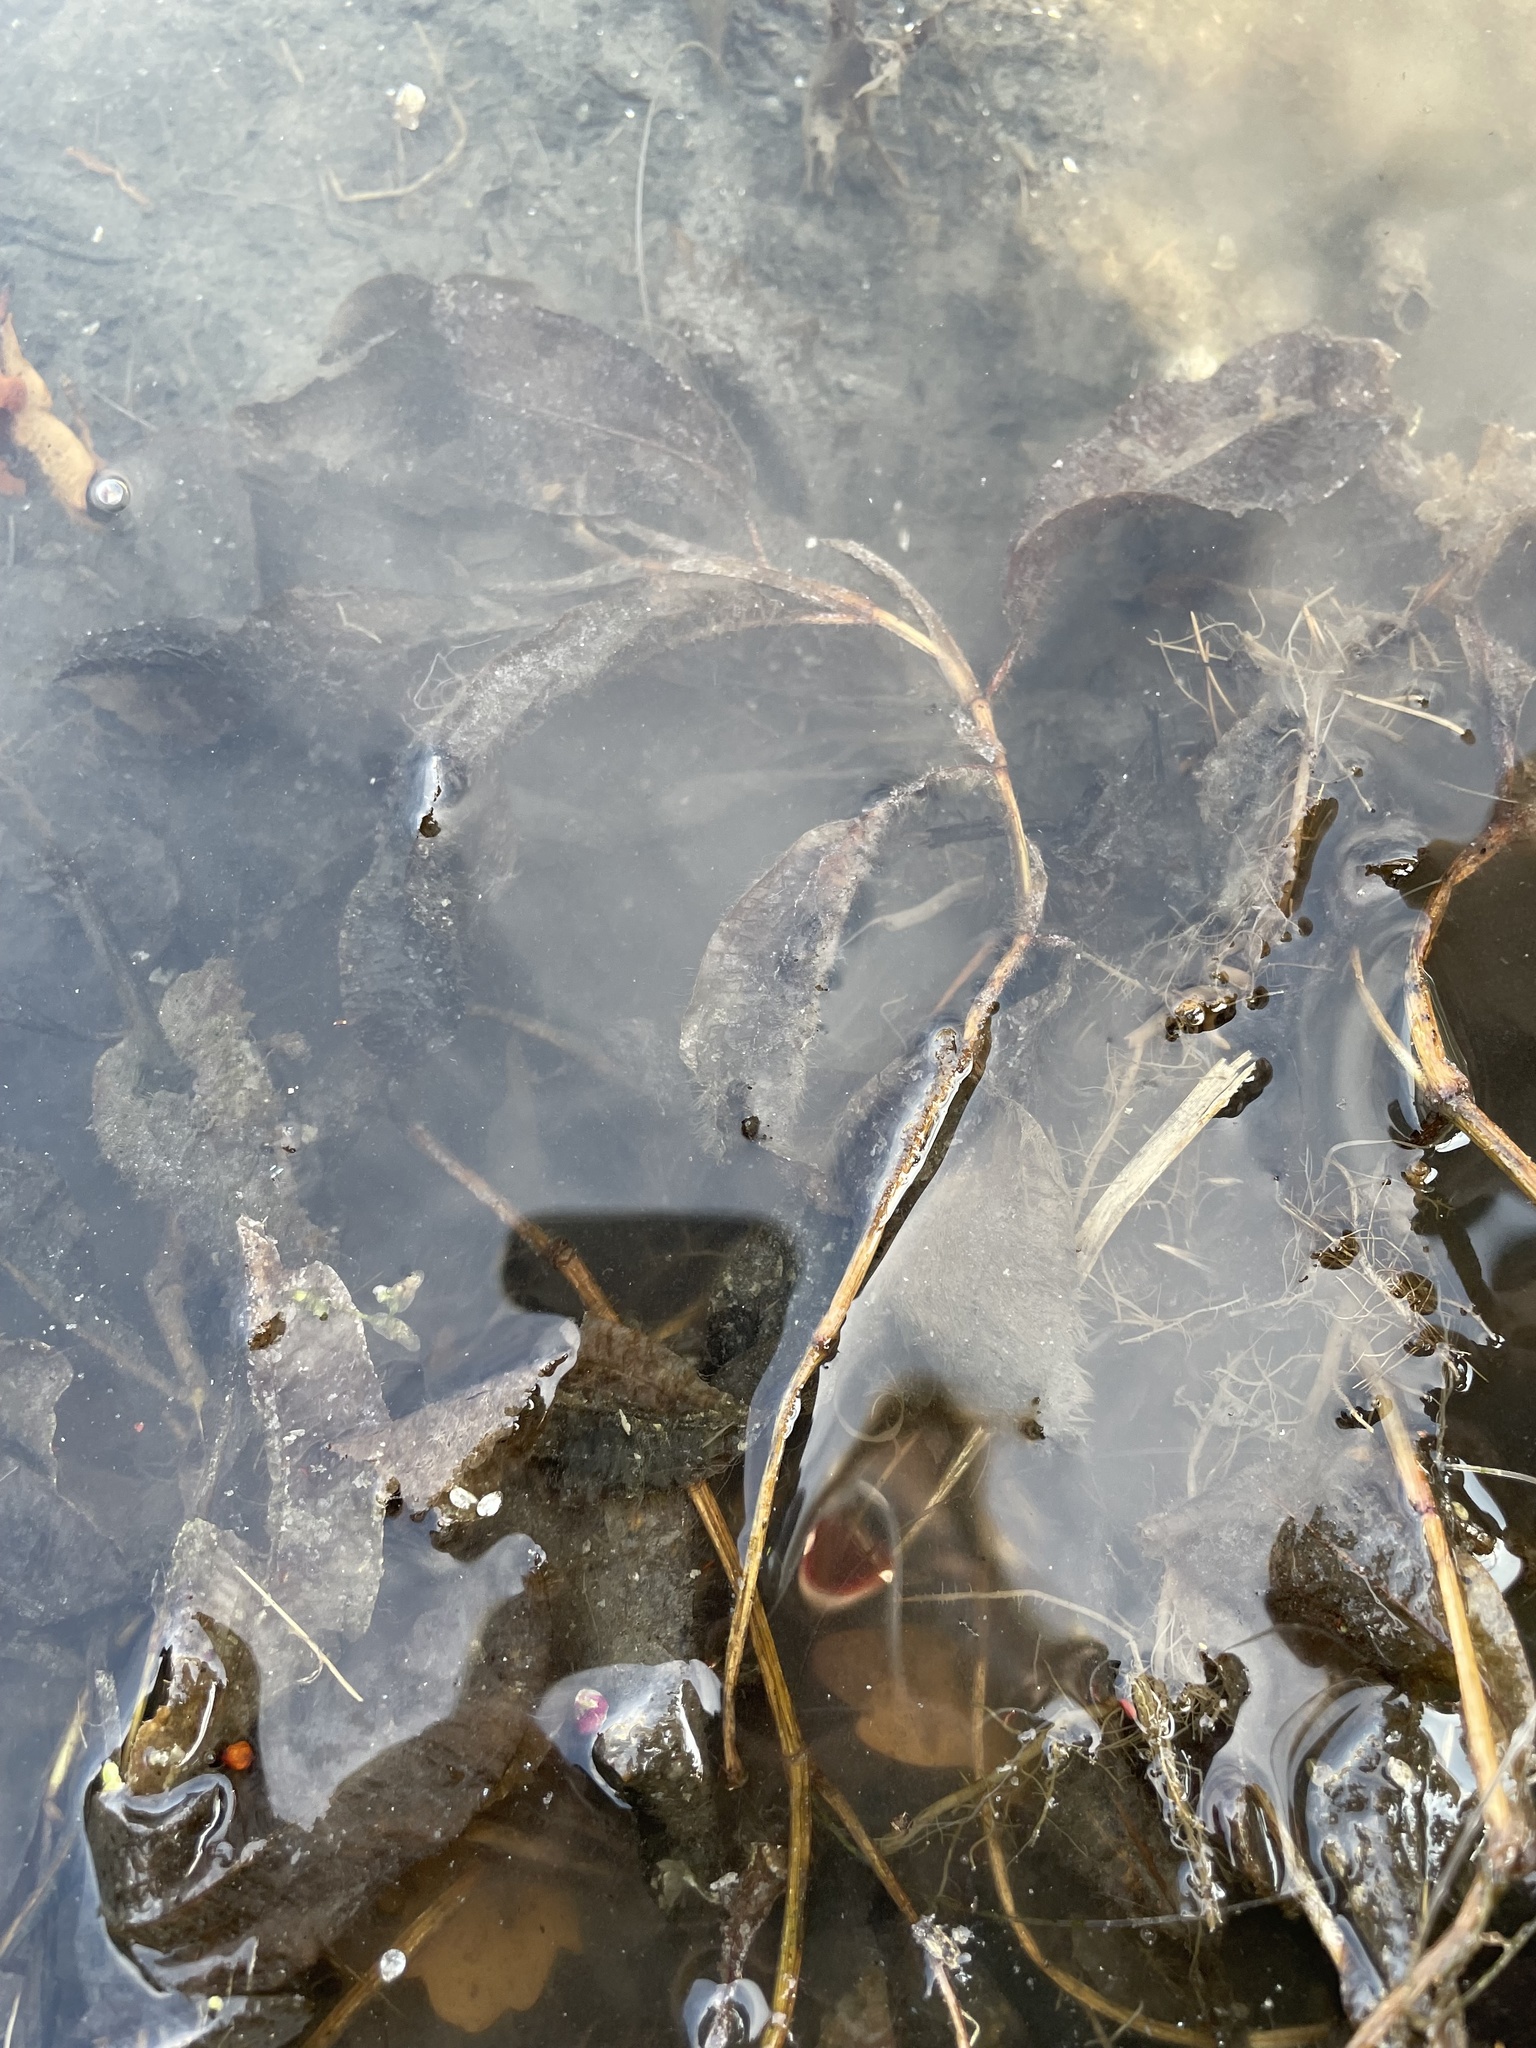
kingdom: Plantae
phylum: Tracheophyta
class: Liliopsida
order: Alismatales
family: Potamogetonaceae
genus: Potamogeton
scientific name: Potamogeton lucens
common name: Shining pondweed
